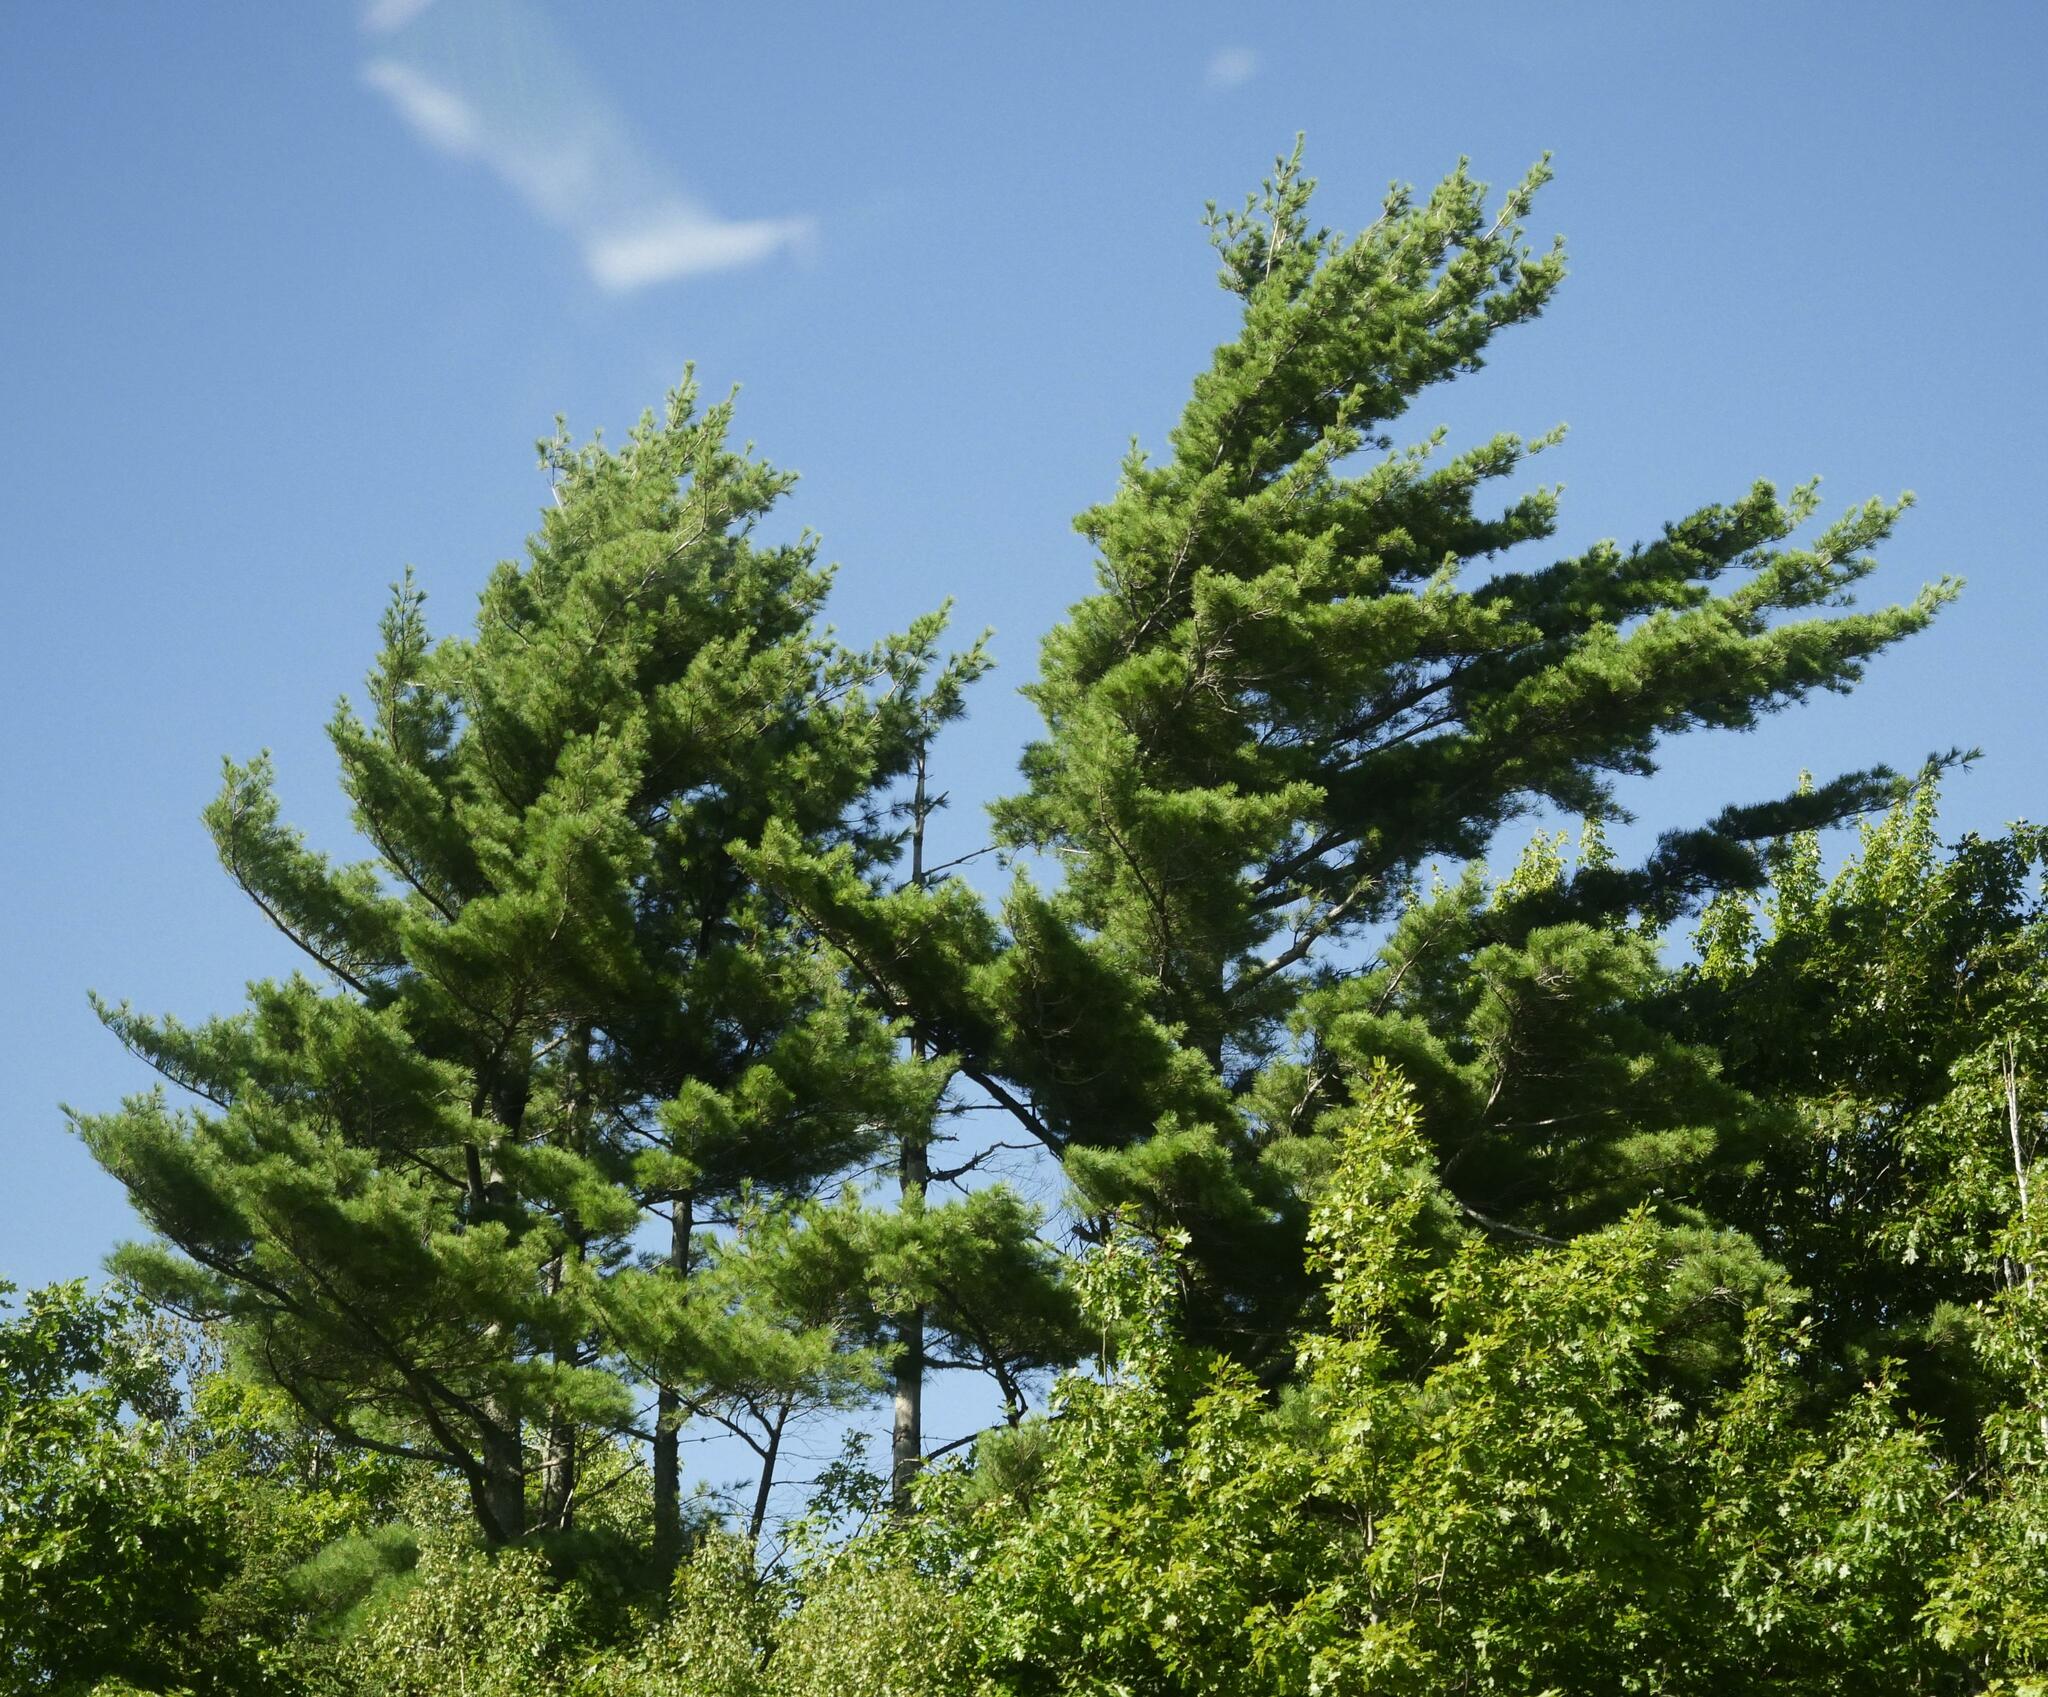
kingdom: Plantae
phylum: Tracheophyta
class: Pinopsida
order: Pinales
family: Pinaceae
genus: Pinus
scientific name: Pinus strobus
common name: Weymouth pine
